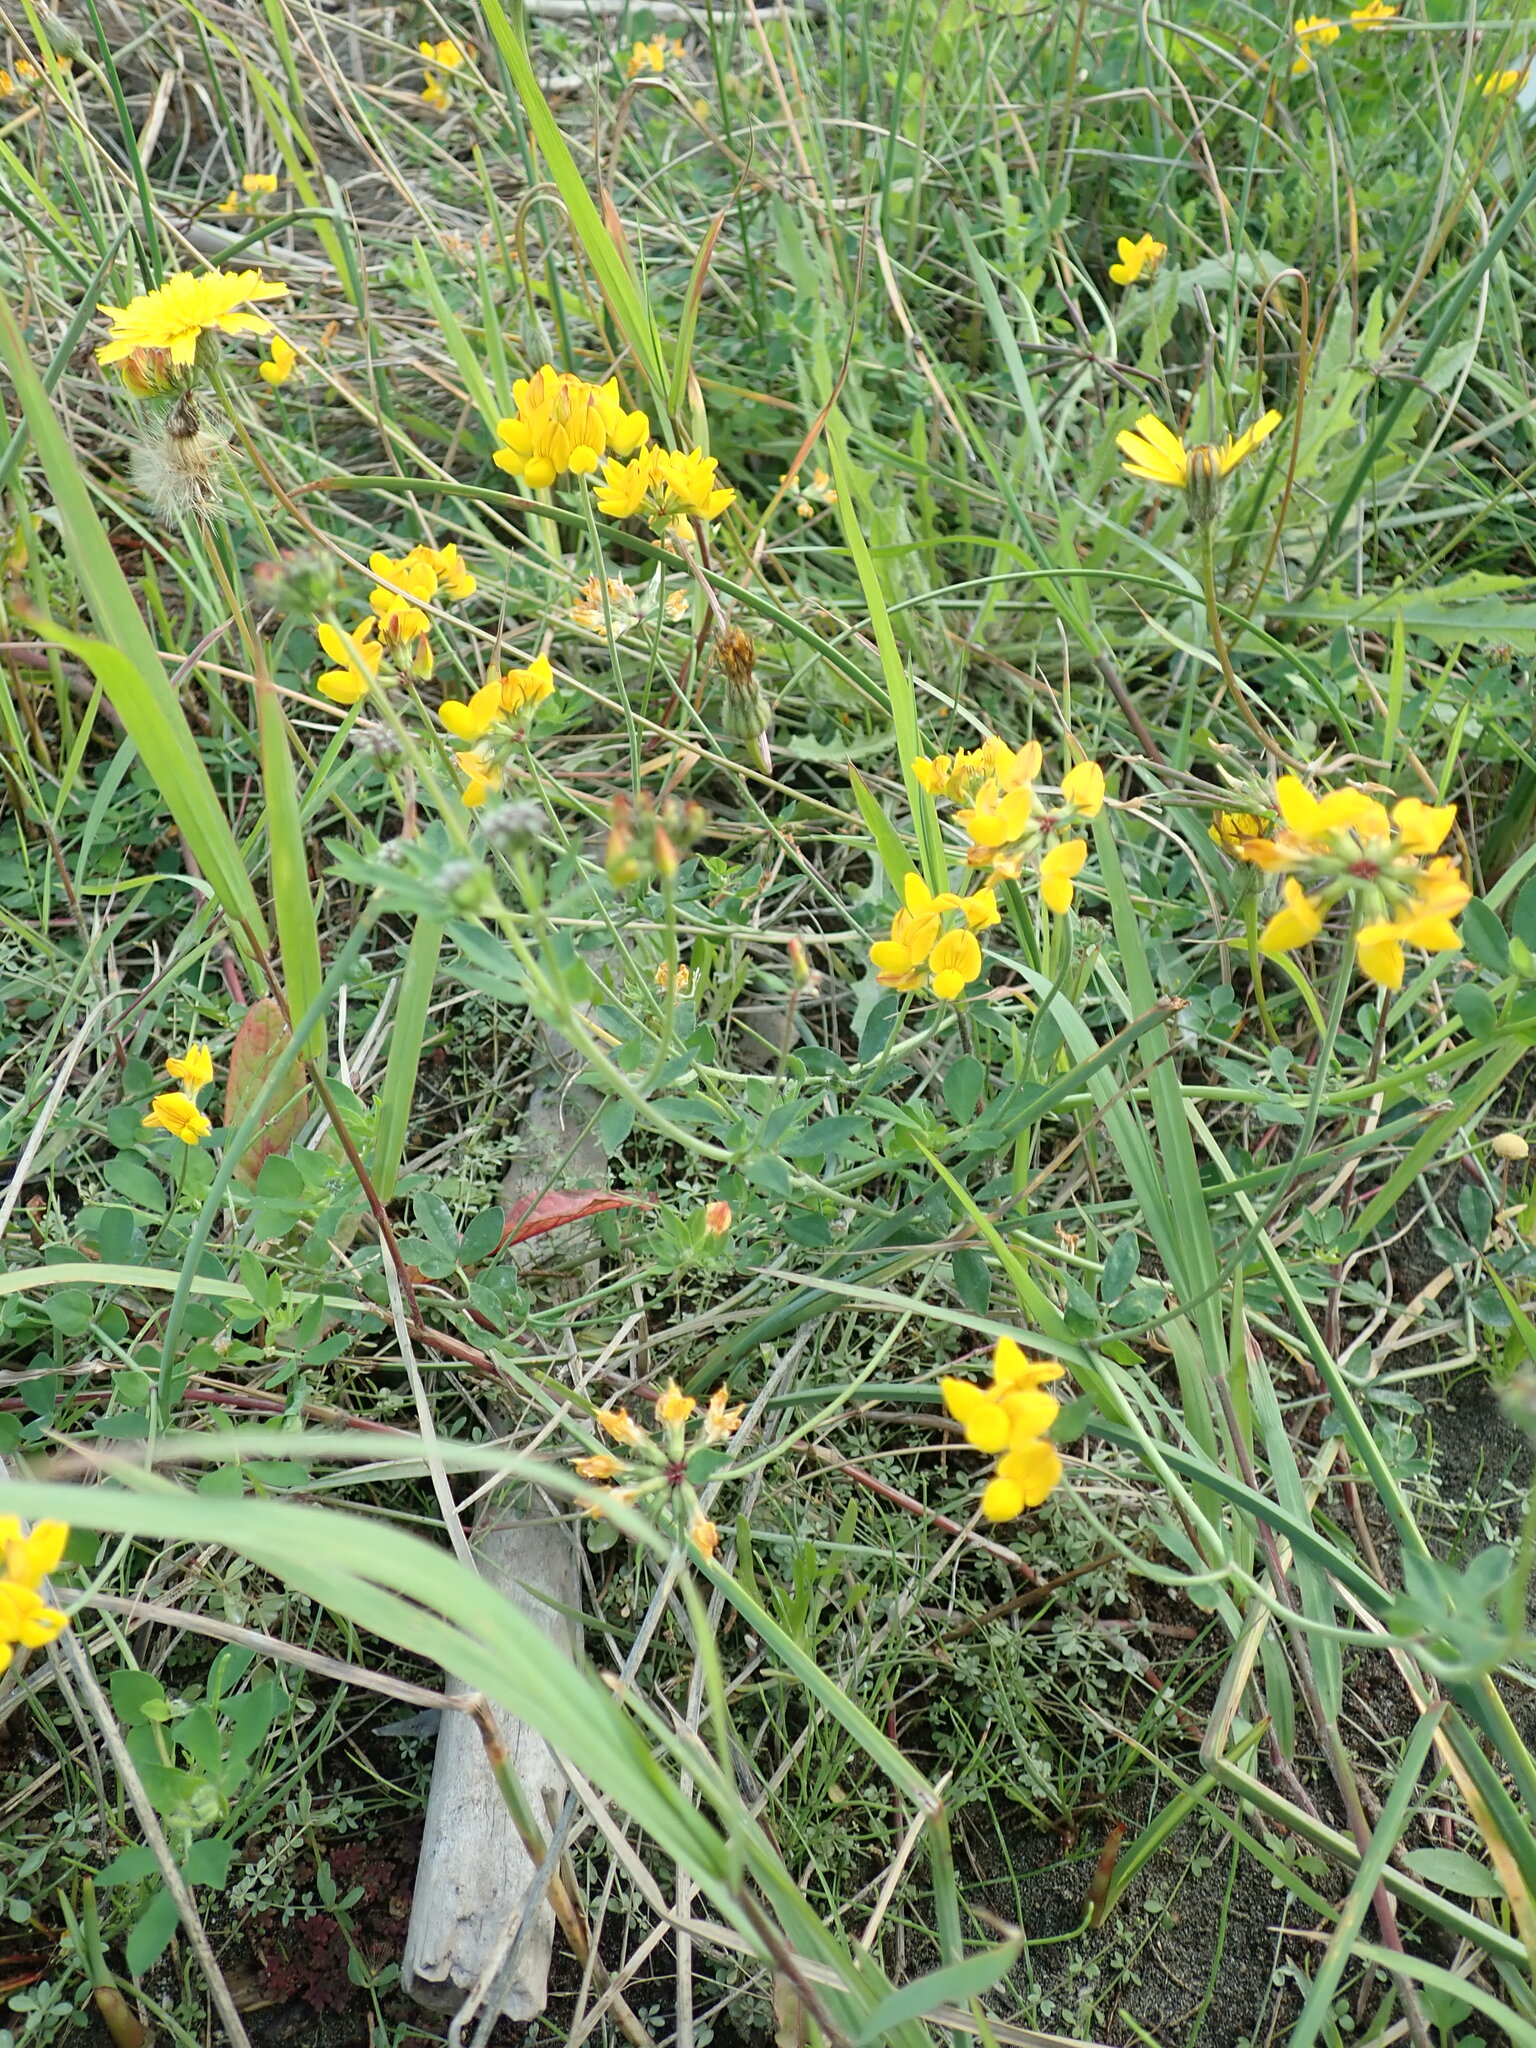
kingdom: Plantae
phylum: Tracheophyta
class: Magnoliopsida
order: Fabales
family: Fabaceae
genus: Lotus
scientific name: Lotus pedunculatus
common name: Greater birdsfoot-trefoil
